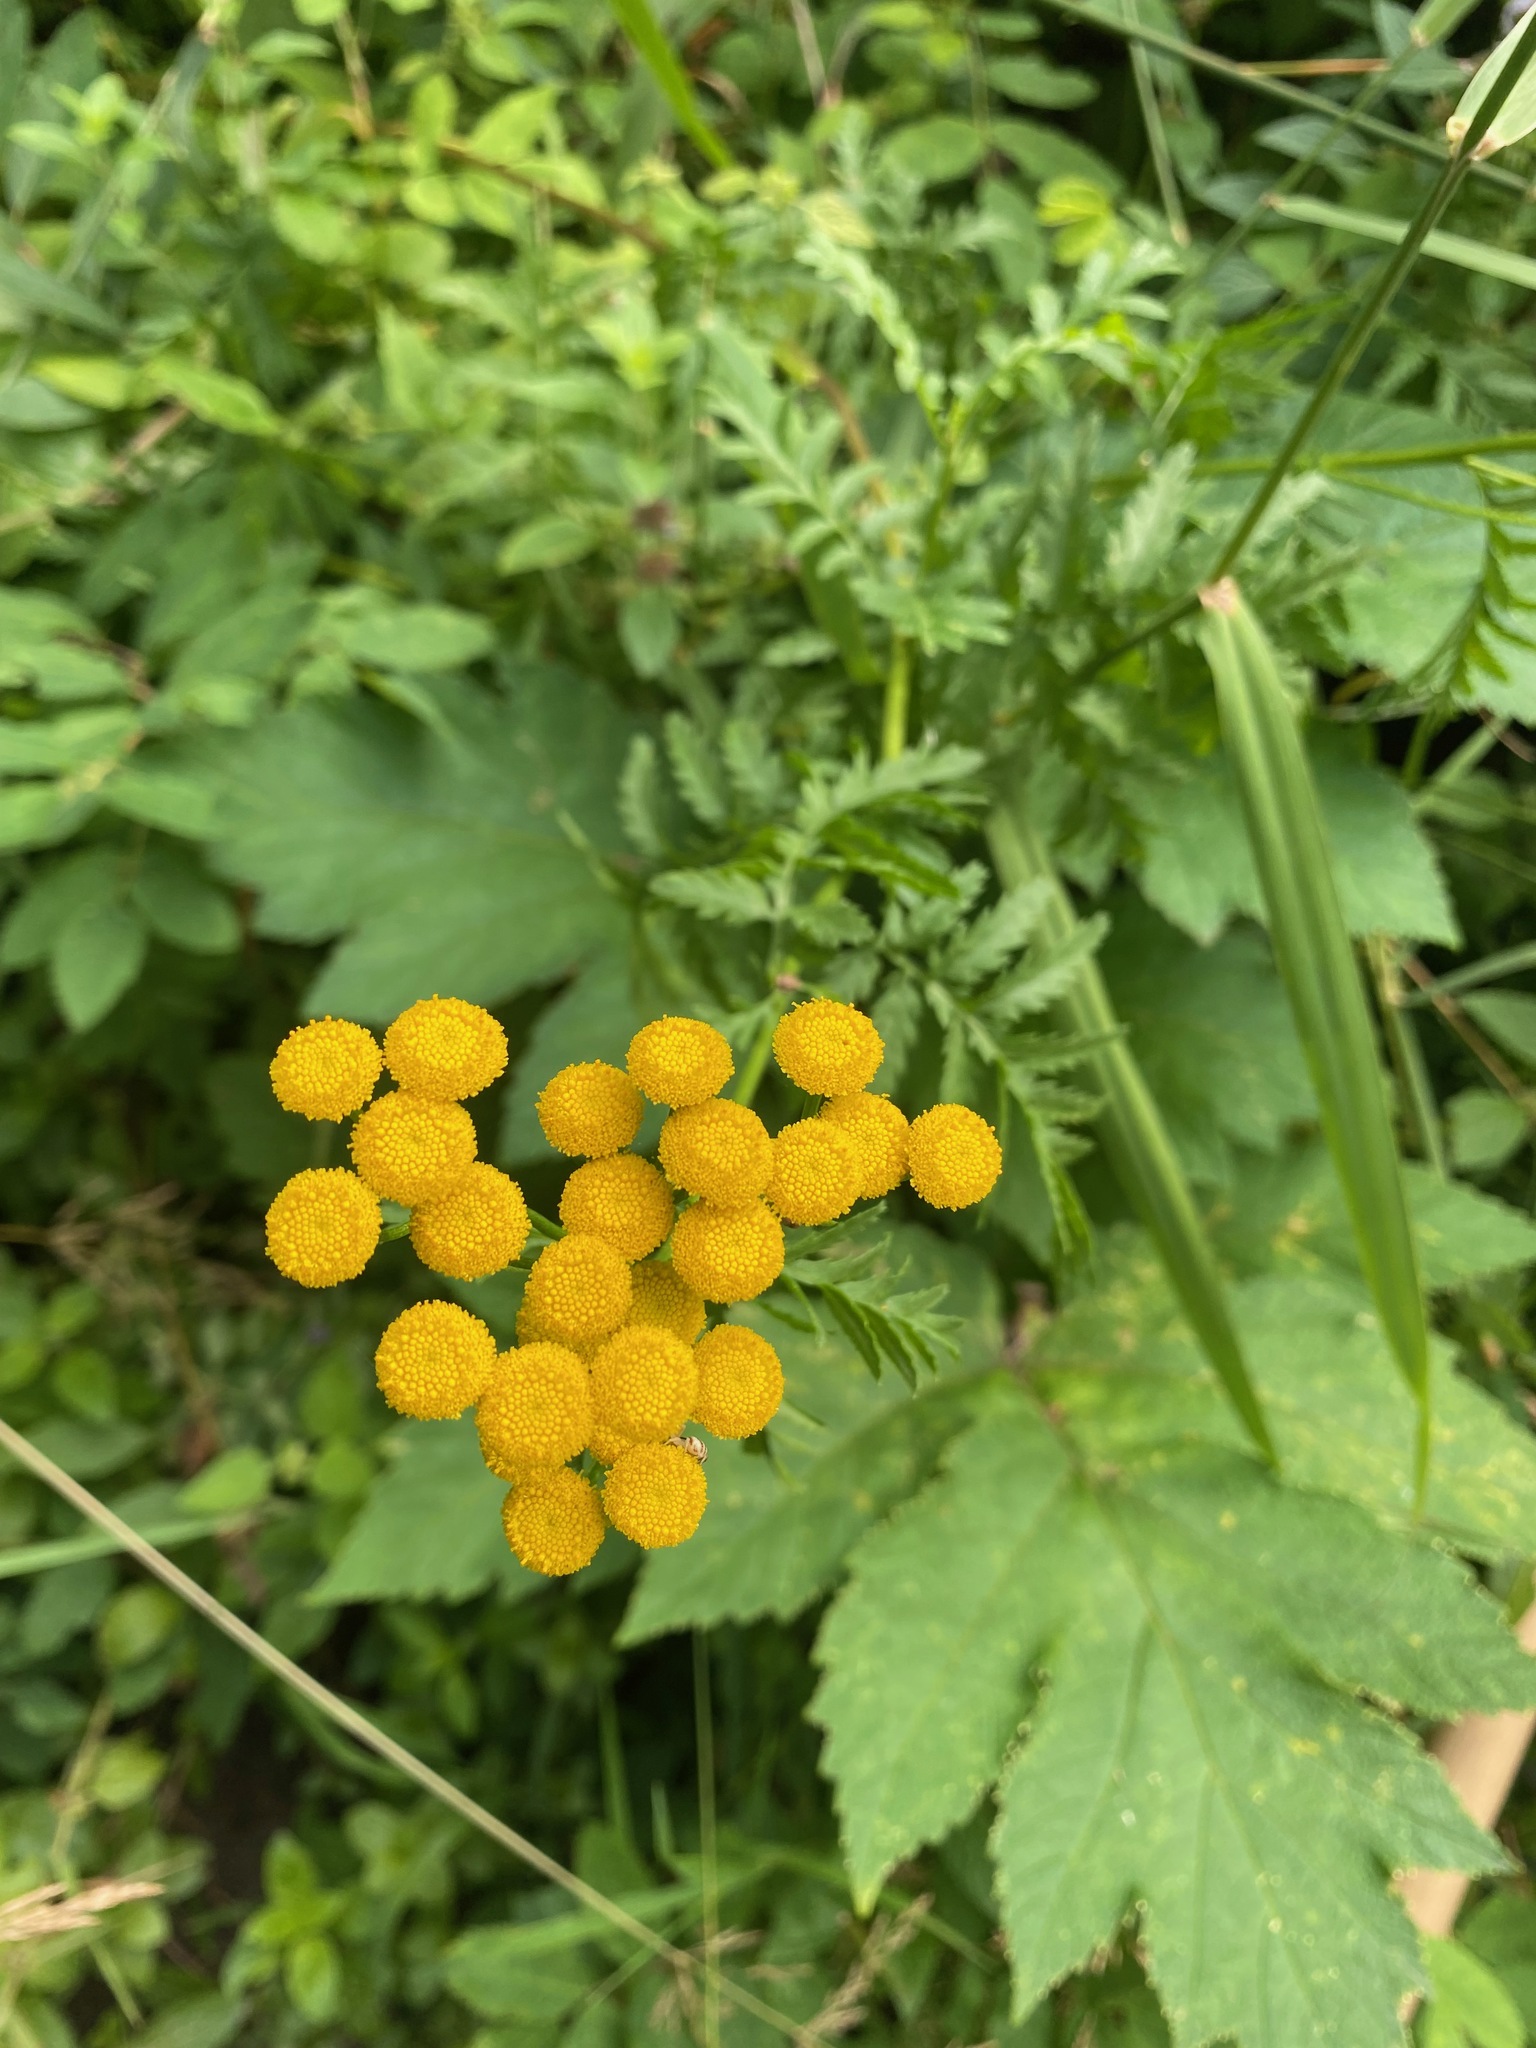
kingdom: Plantae
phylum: Tracheophyta
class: Magnoliopsida
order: Asterales
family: Asteraceae
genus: Tanacetum
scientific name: Tanacetum vulgare
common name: Common tansy
